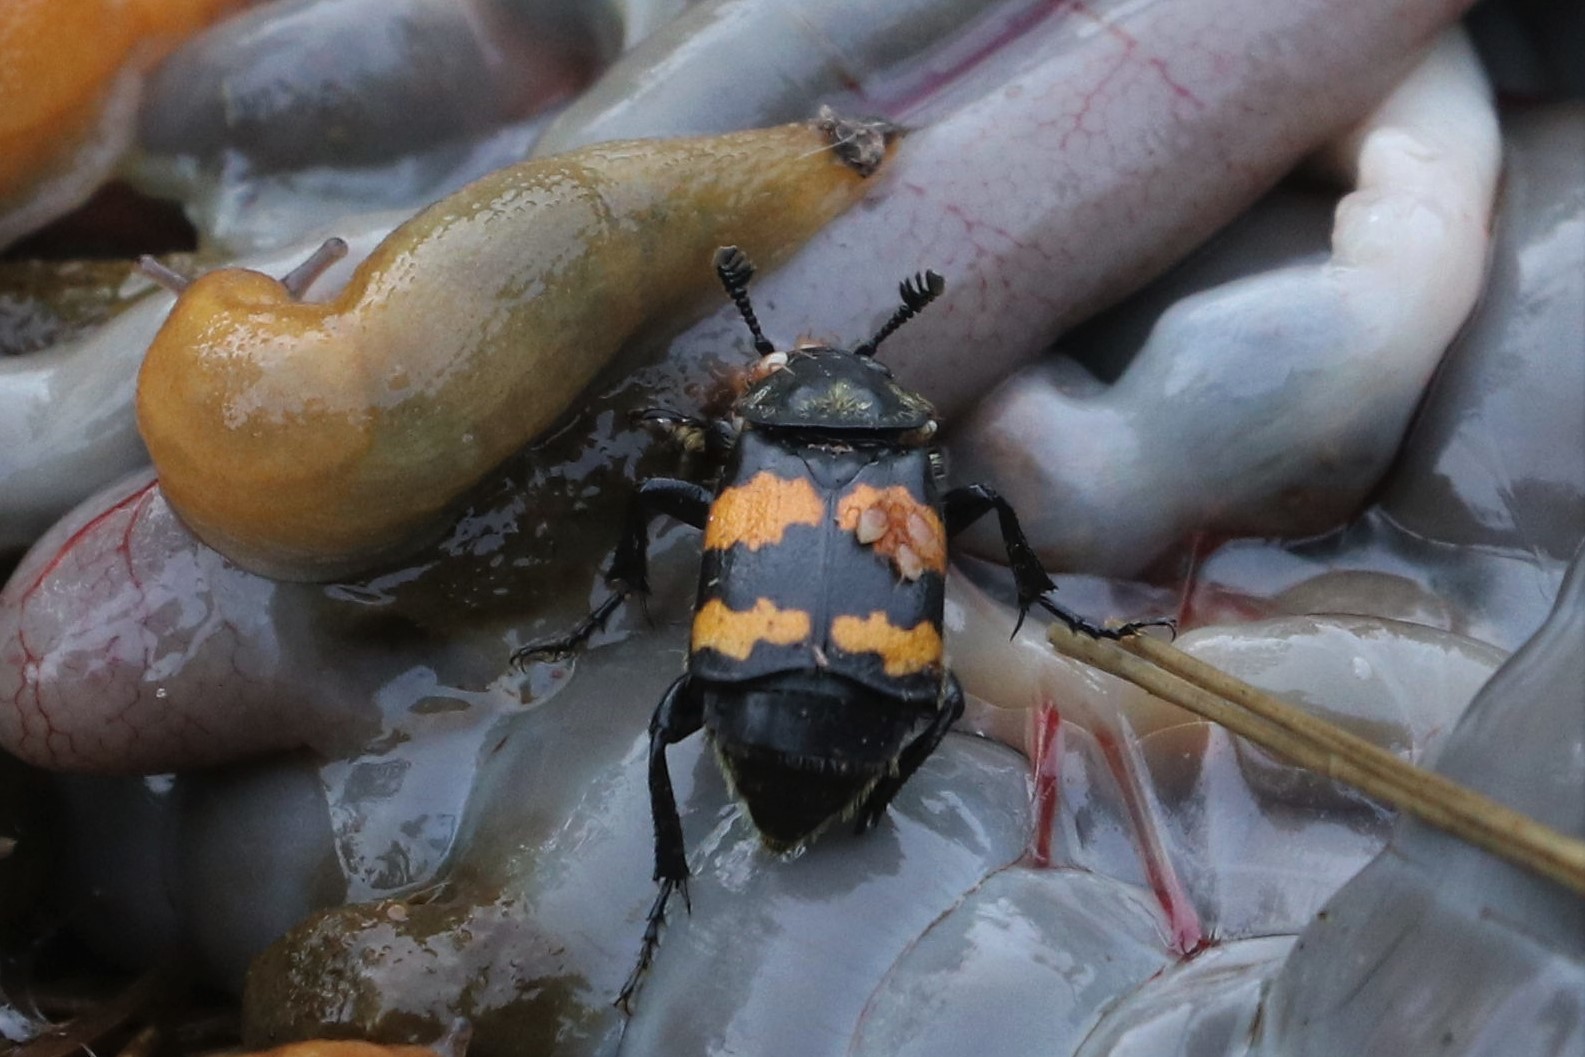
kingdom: Animalia
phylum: Arthropoda
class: Insecta
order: Coleoptera
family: Staphylinidae
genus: Nicrophorus
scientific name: Nicrophorus tomentosus
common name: Tomentose burying beetle
